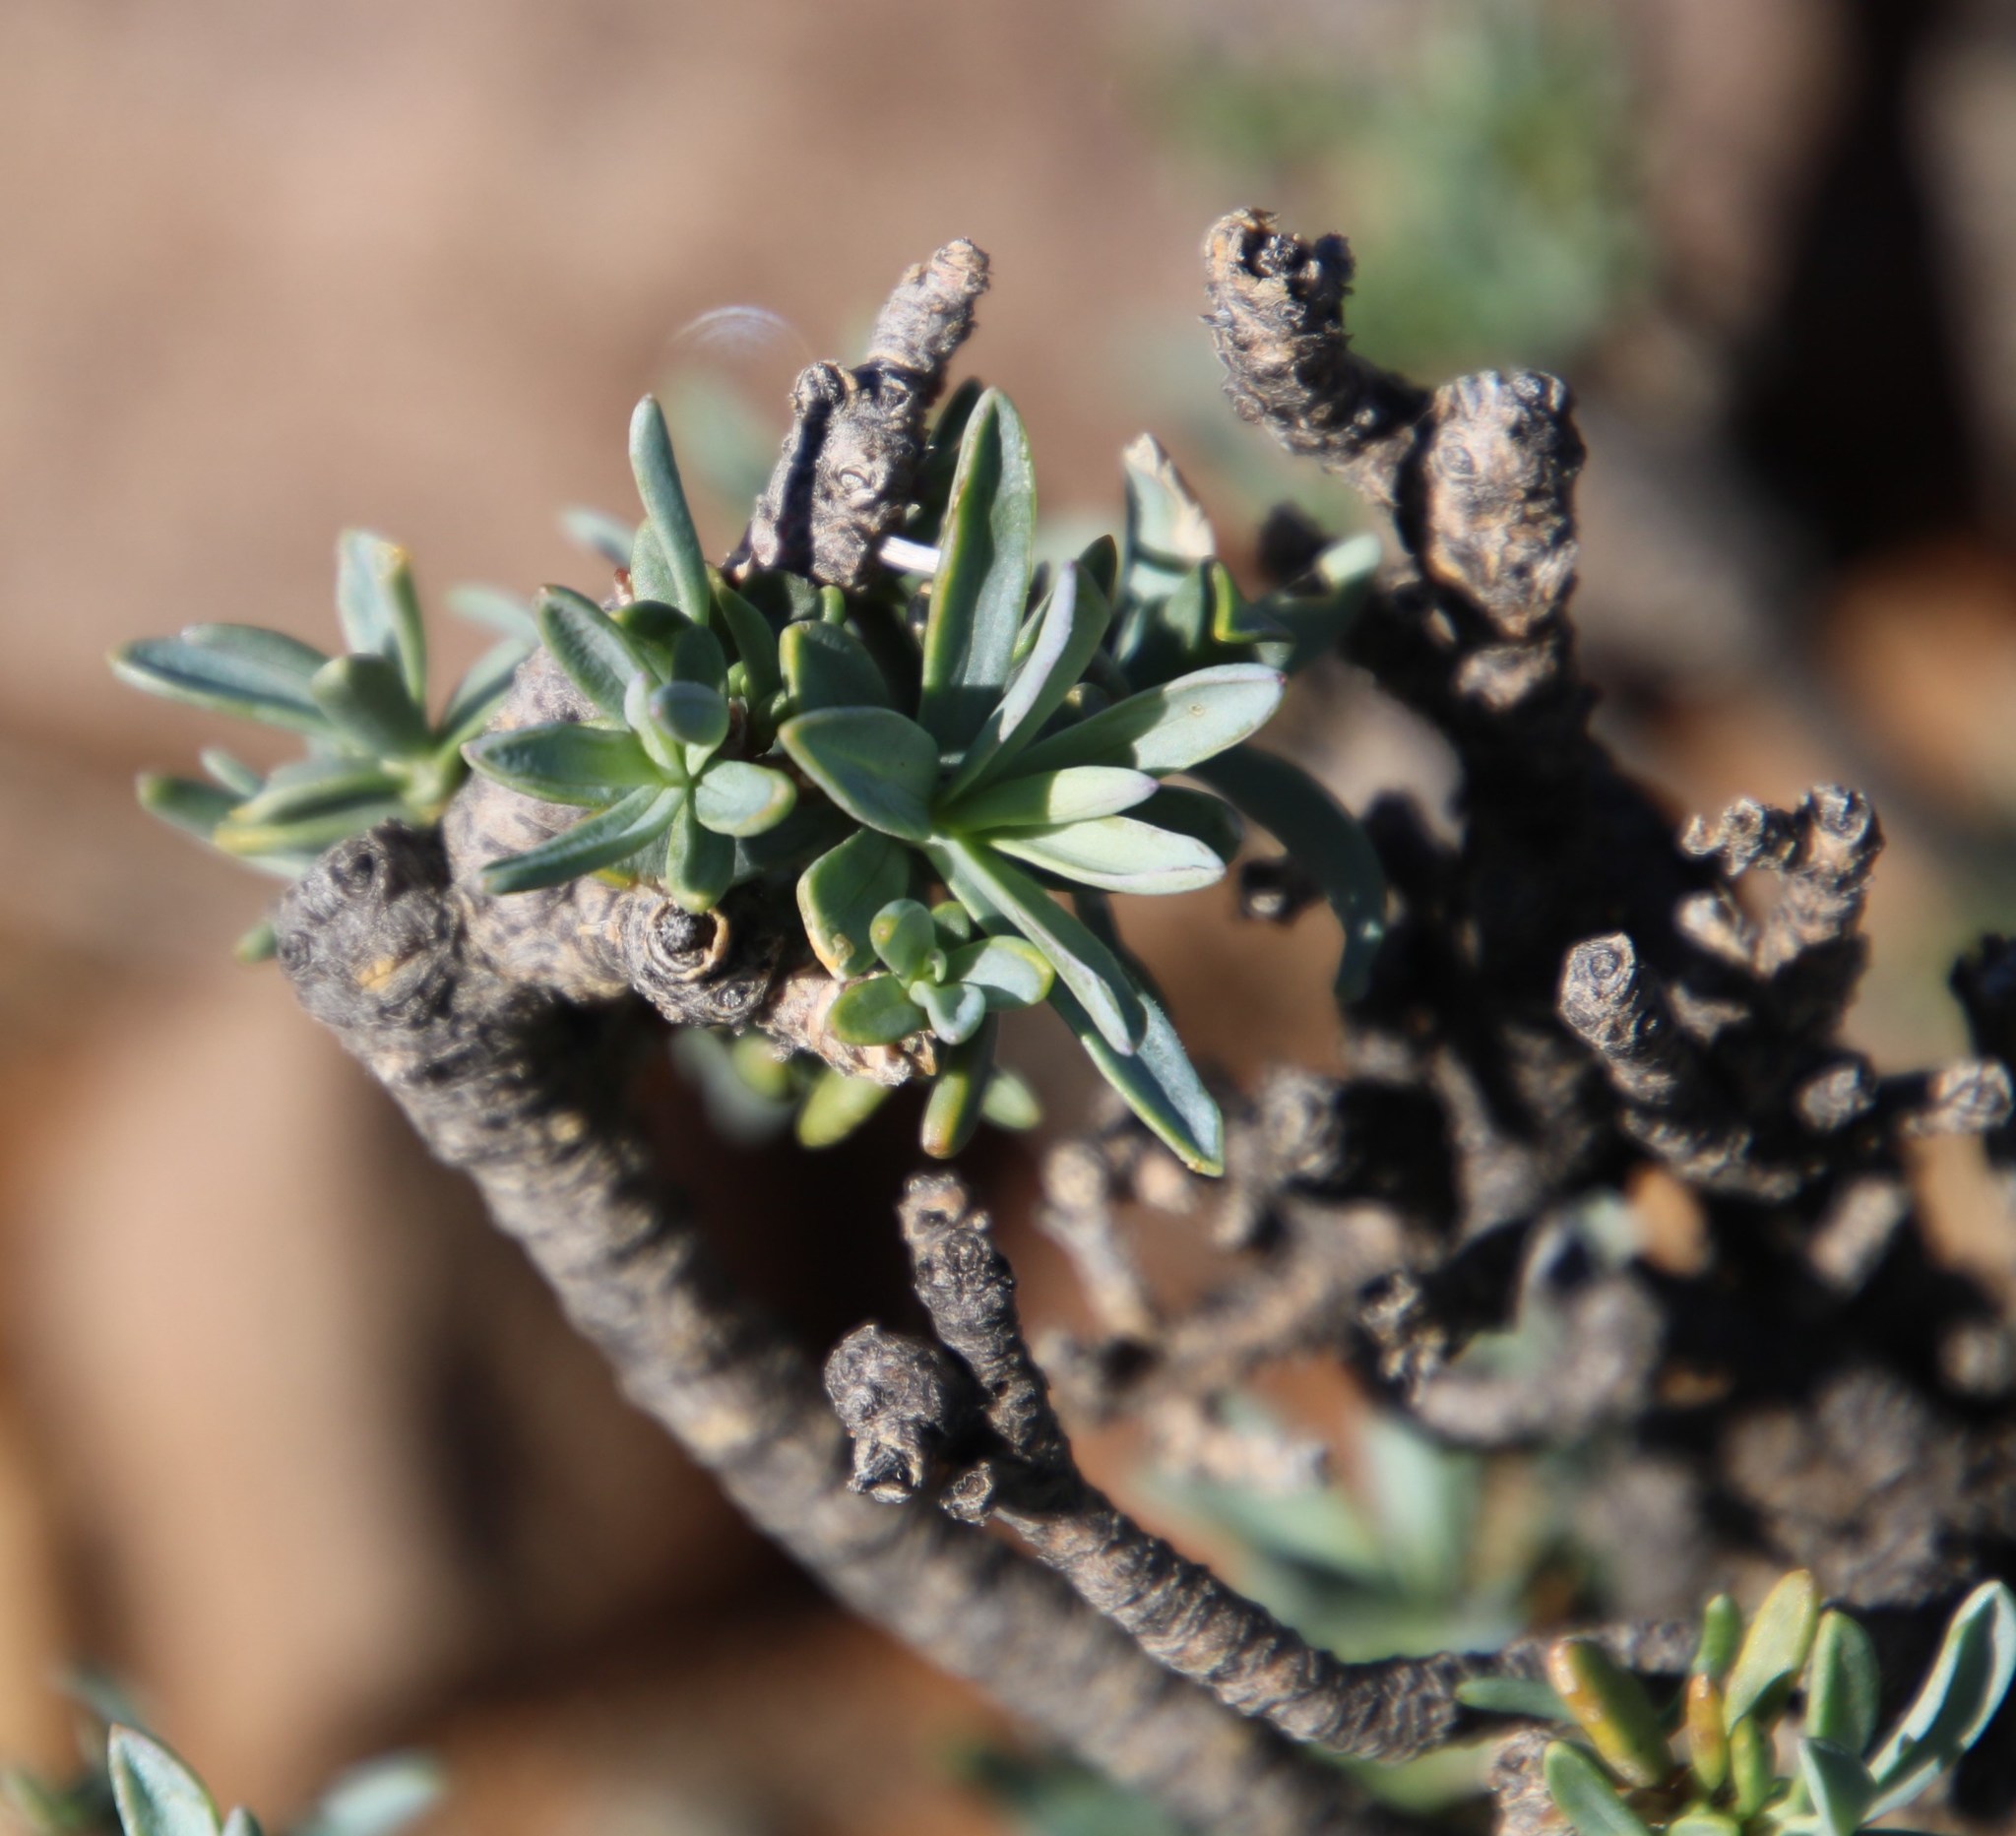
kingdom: Plantae
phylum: Tracheophyta
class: Magnoliopsida
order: Asterales
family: Asteraceae
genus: Euryops
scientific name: Euryops lateriflorus
